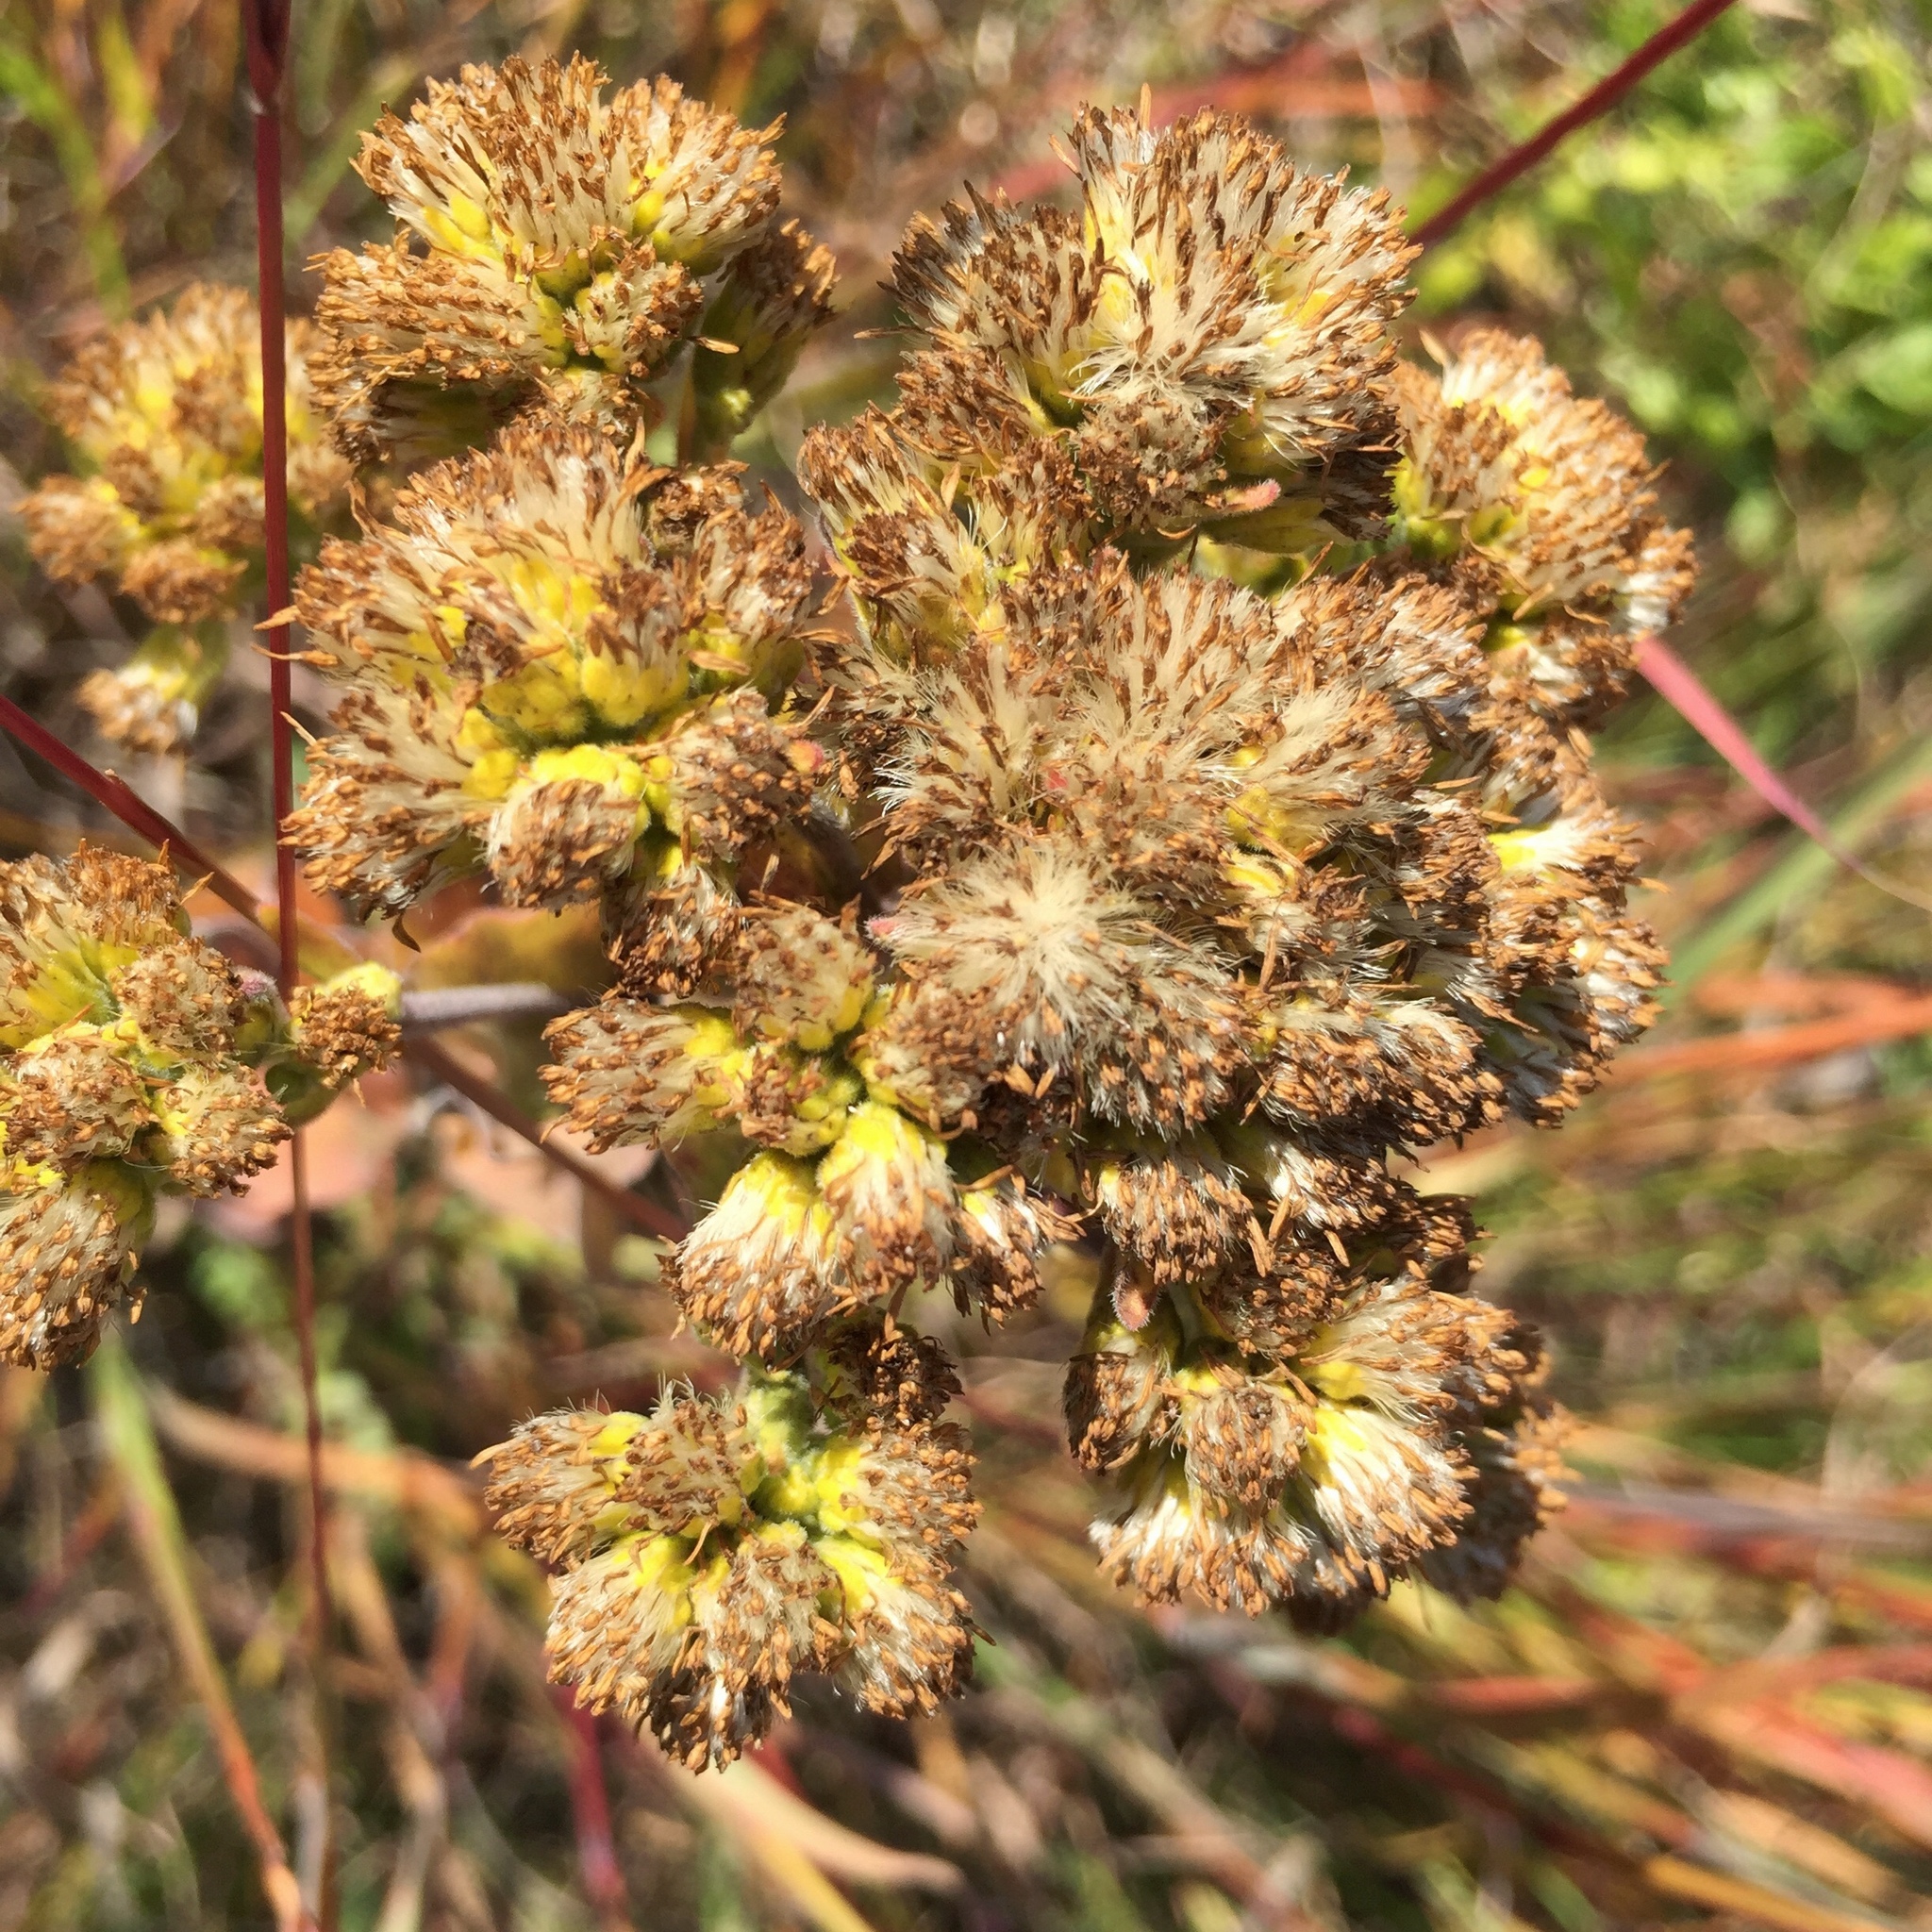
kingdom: Plantae
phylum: Tracheophyta
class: Magnoliopsida
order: Asterales
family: Asteraceae
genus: Solidago
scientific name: Solidago rigida
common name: Rigid goldenrod
